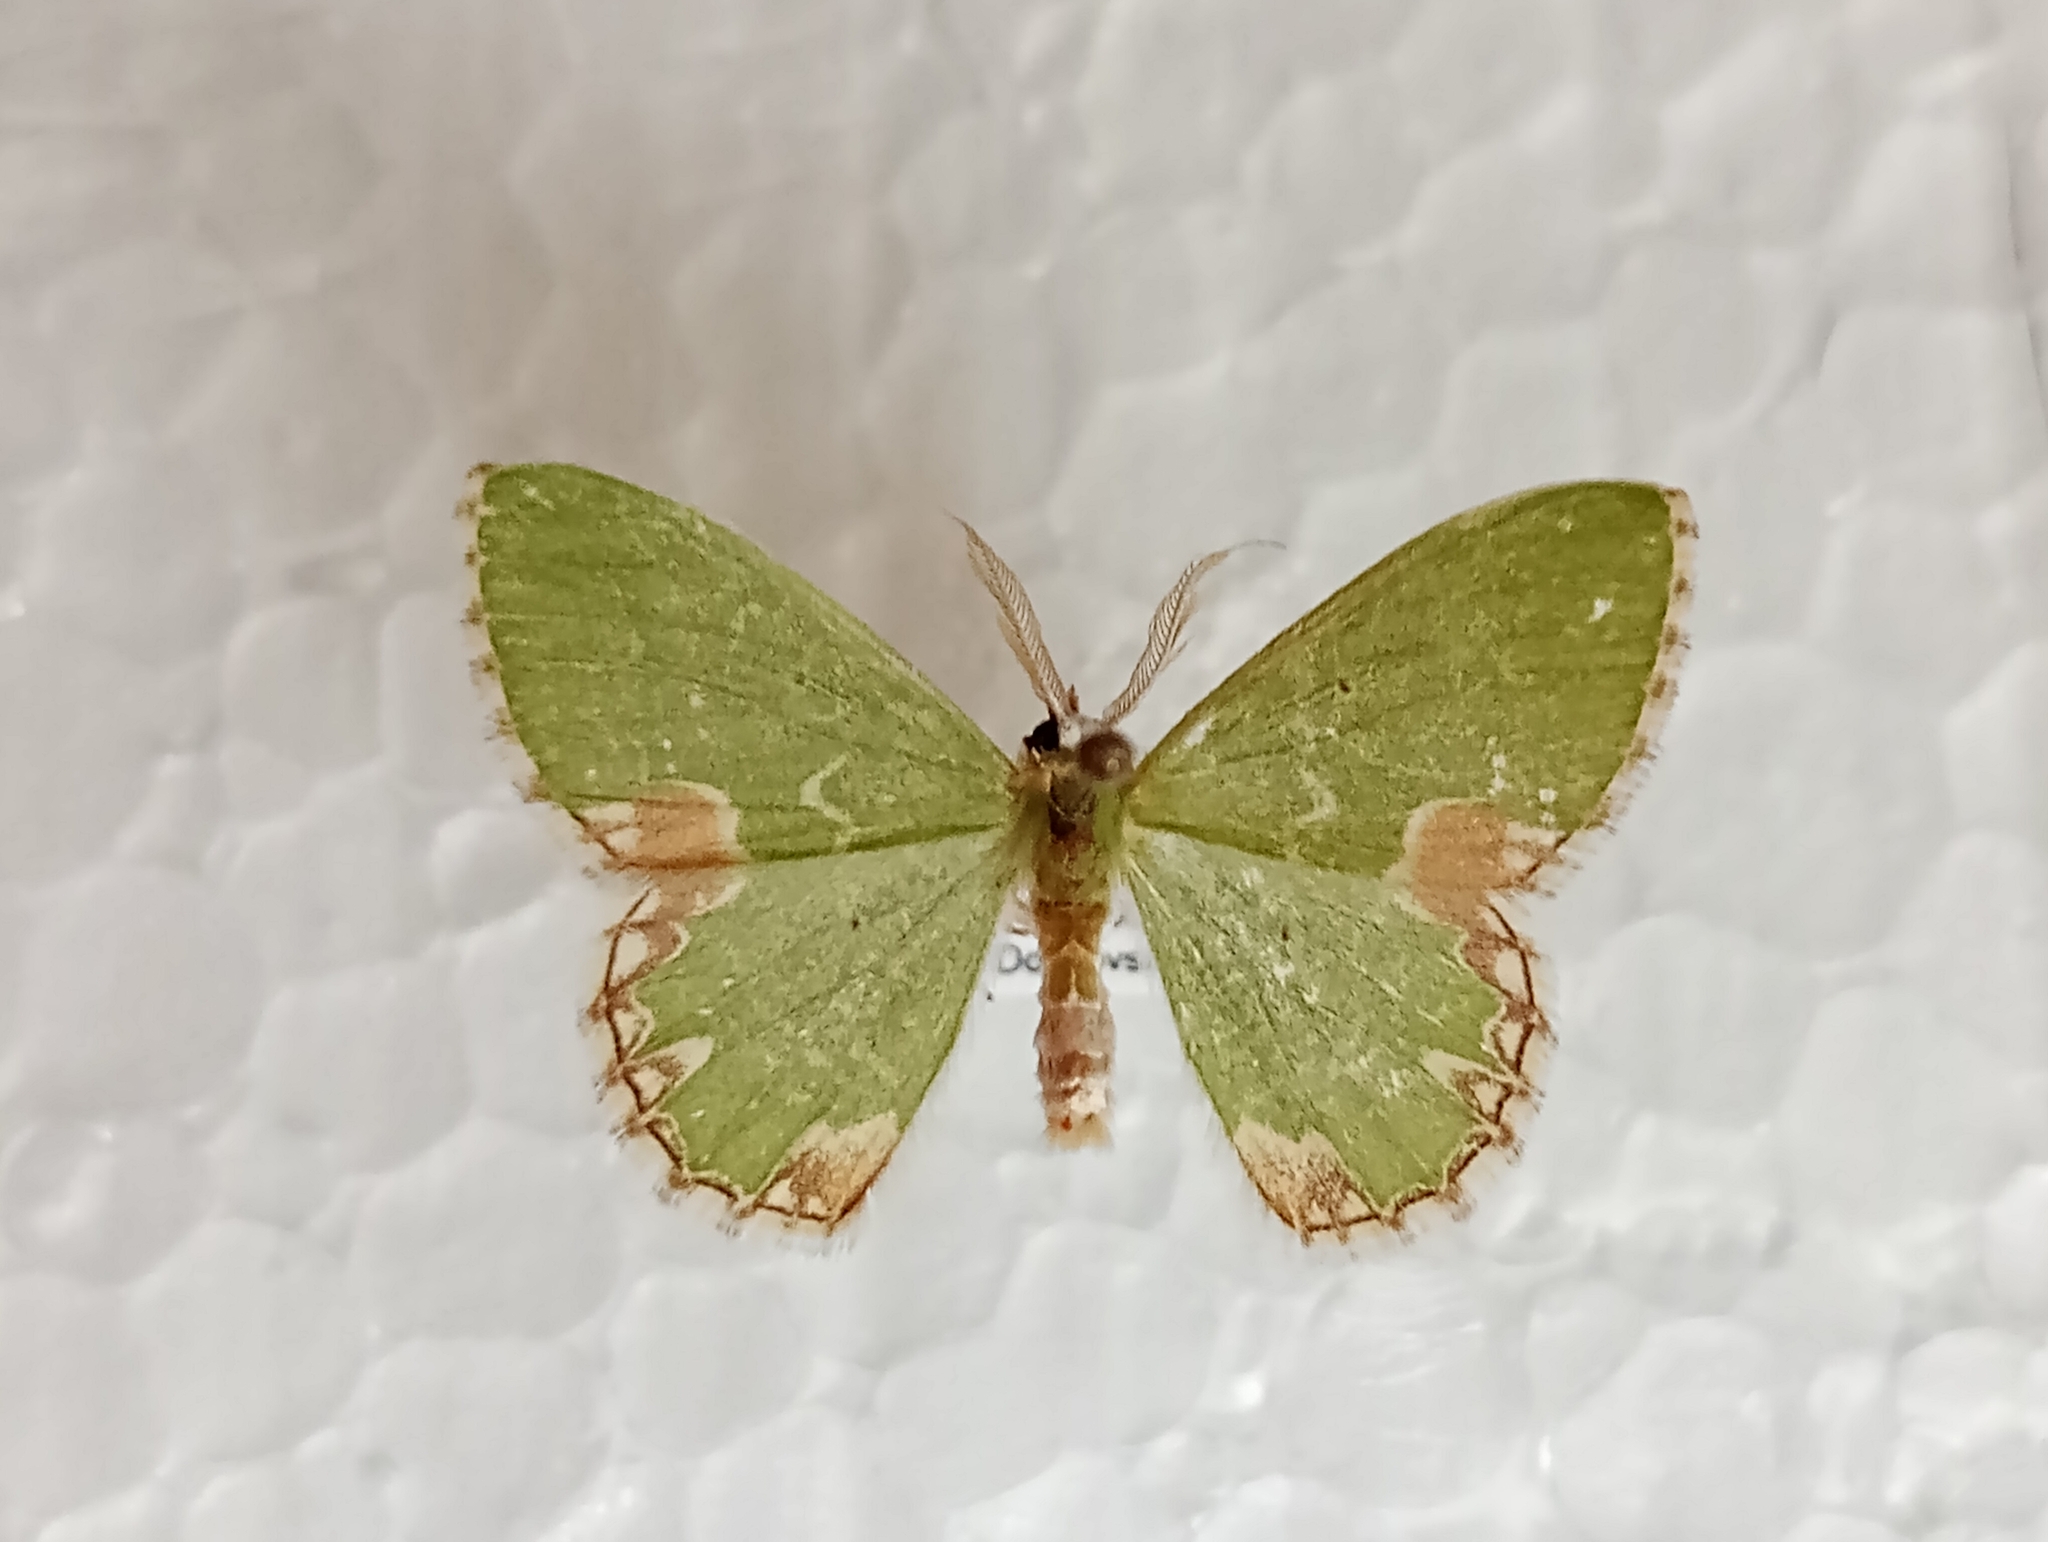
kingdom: Animalia
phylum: Arthropoda
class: Insecta
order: Lepidoptera
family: Geometridae
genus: Comibaena
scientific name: Comibaena bajularia
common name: Blotched emerald
